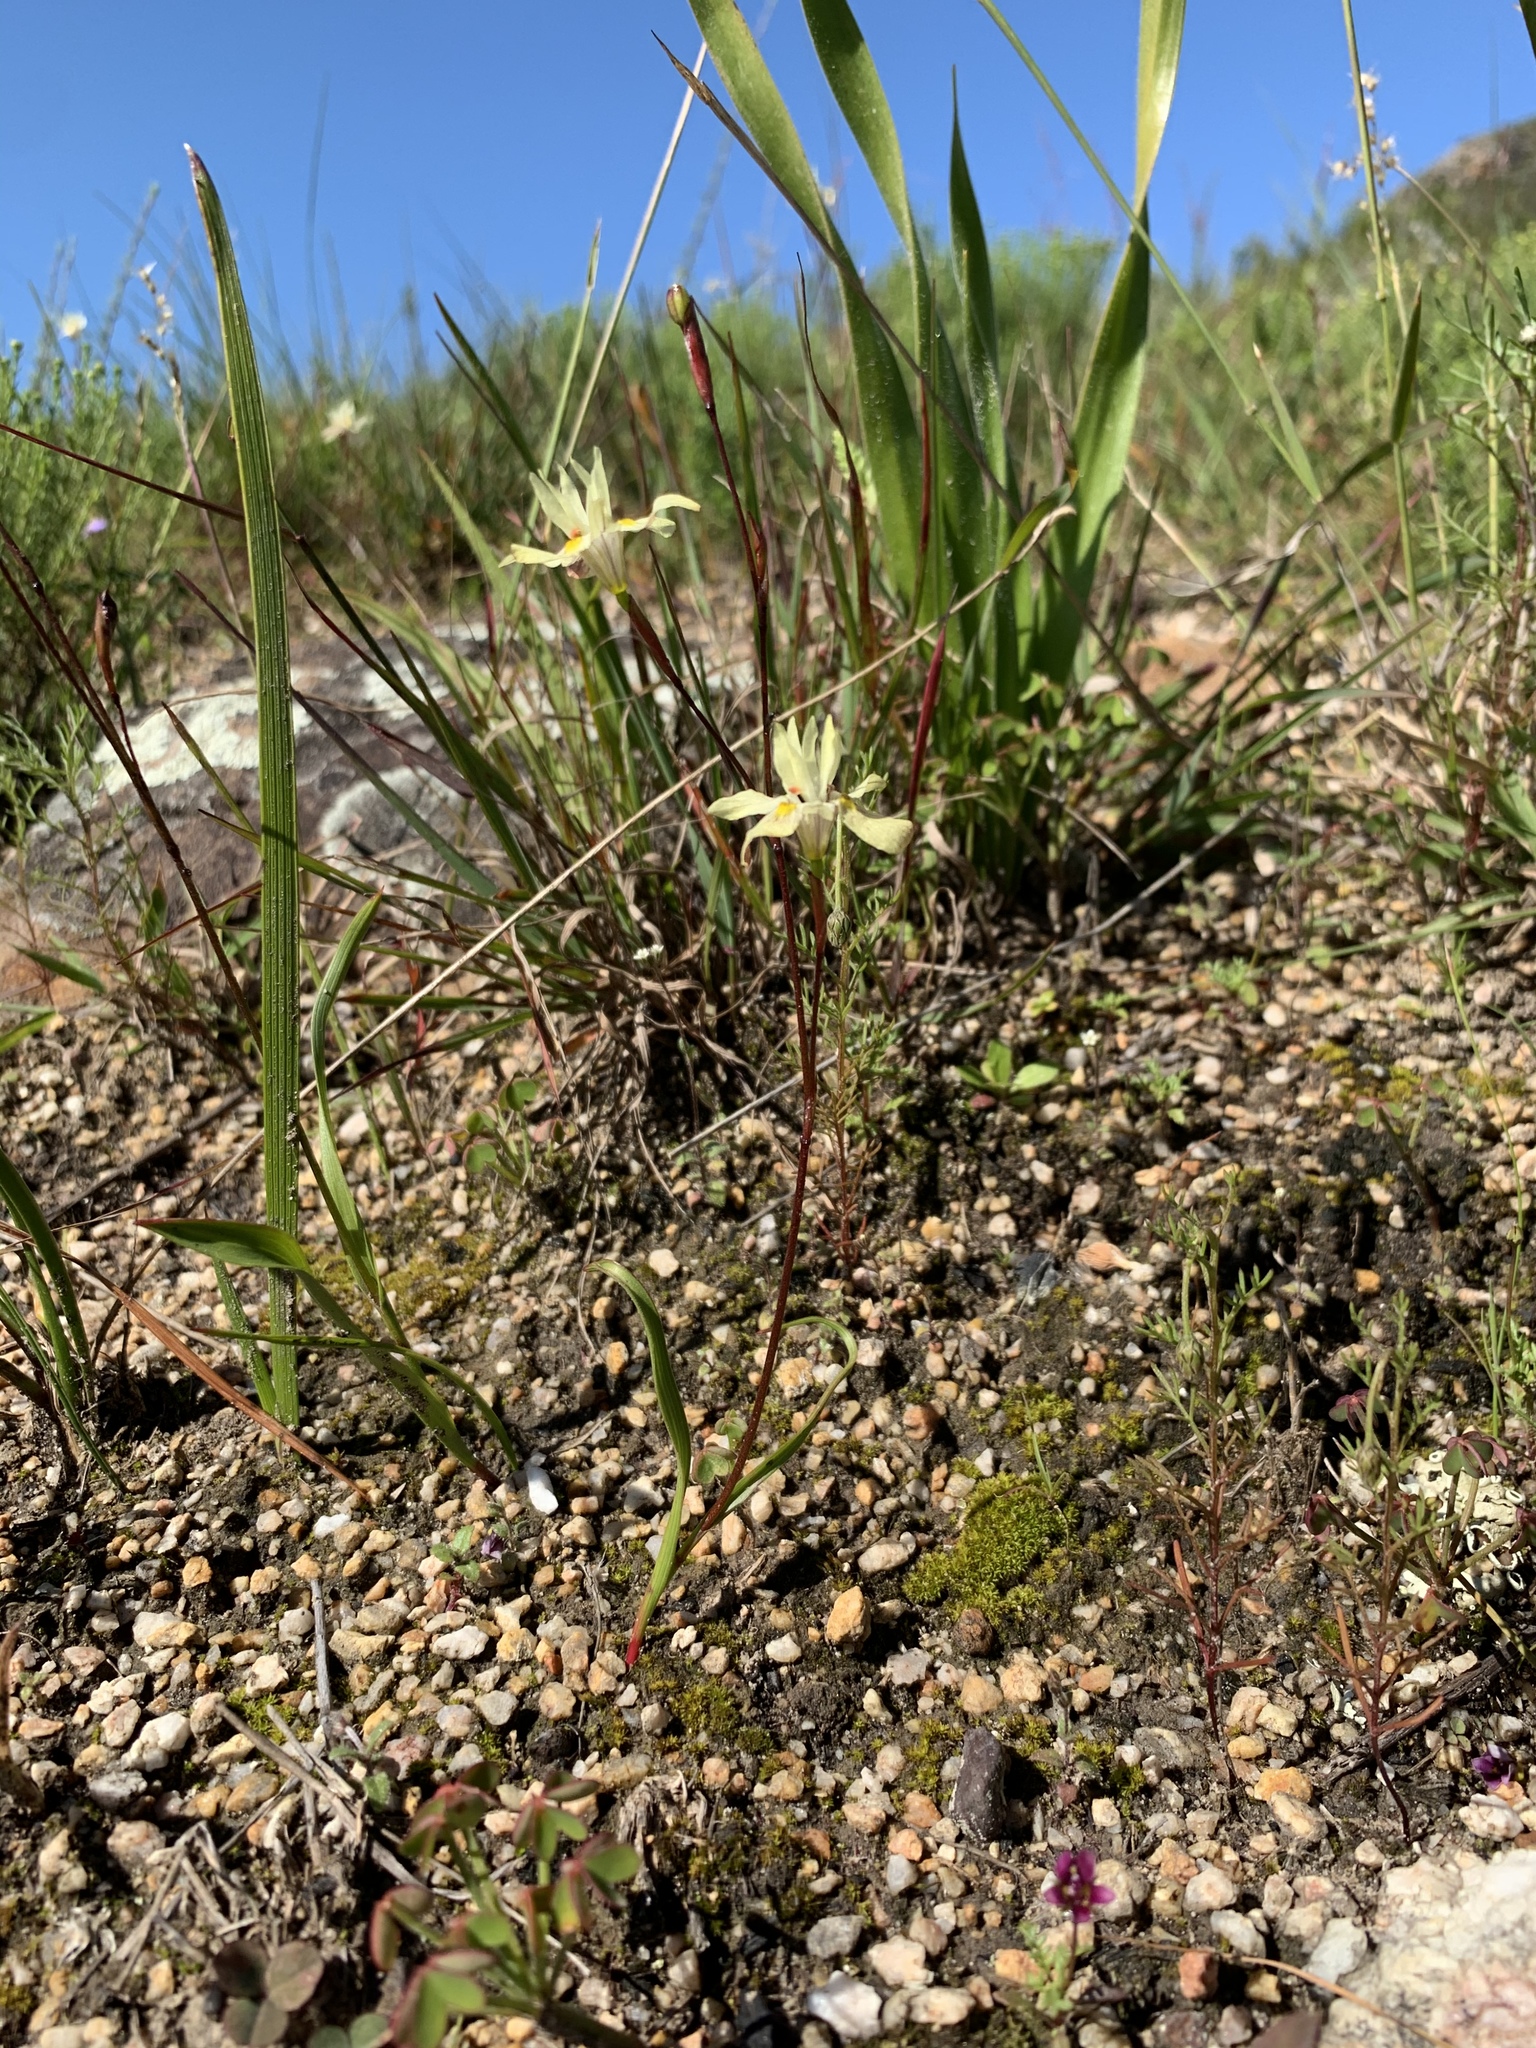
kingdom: Plantae
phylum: Tracheophyta
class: Liliopsida
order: Asparagales
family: Iridaceae
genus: Moraea
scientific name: Moraea gawleri
